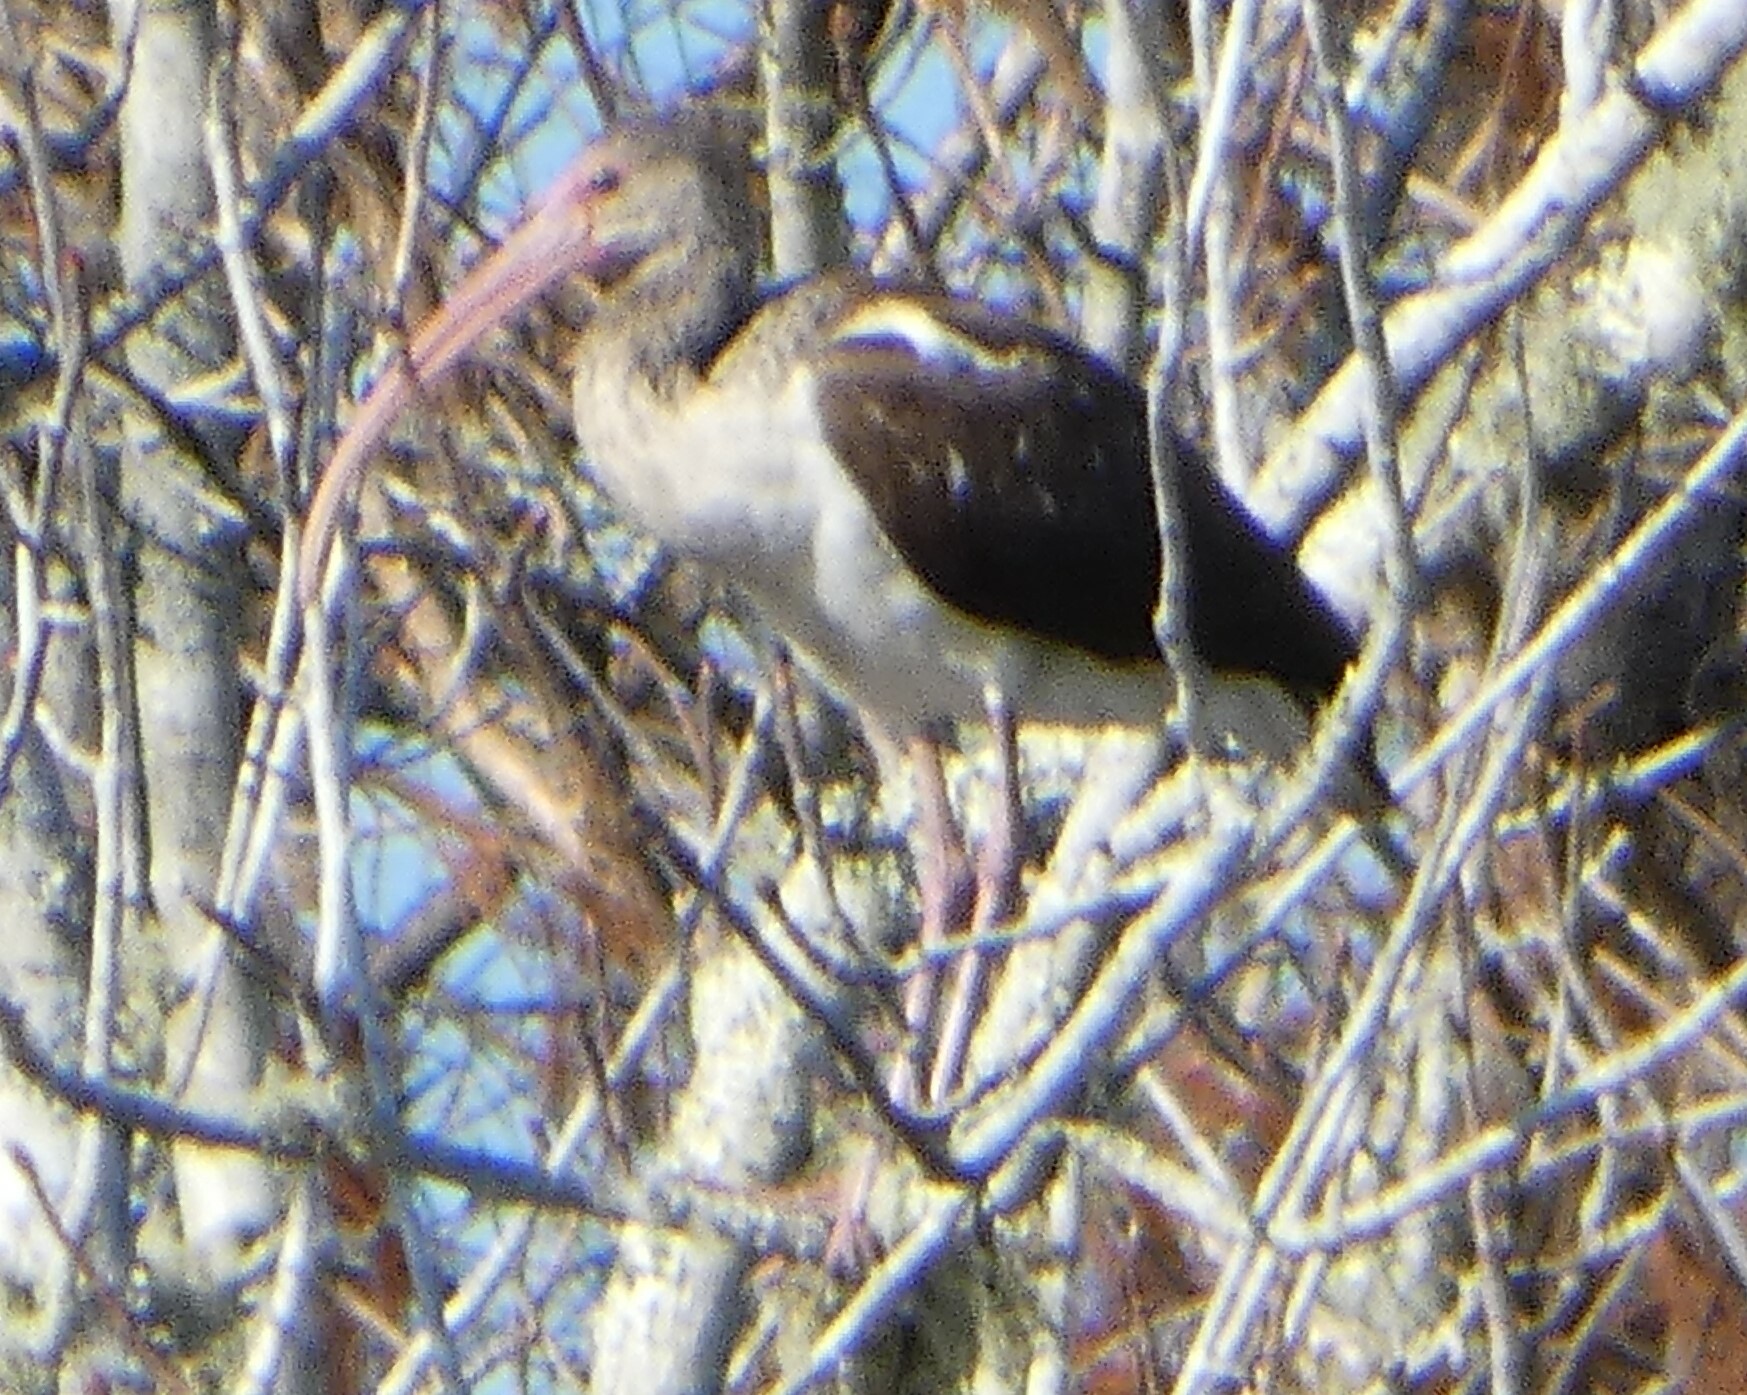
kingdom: Animalia
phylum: Chordata
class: Aves
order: Pelecaniformes
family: Threskiornithidae
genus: Eudocimus
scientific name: Eudocimus albus
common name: White ibis
